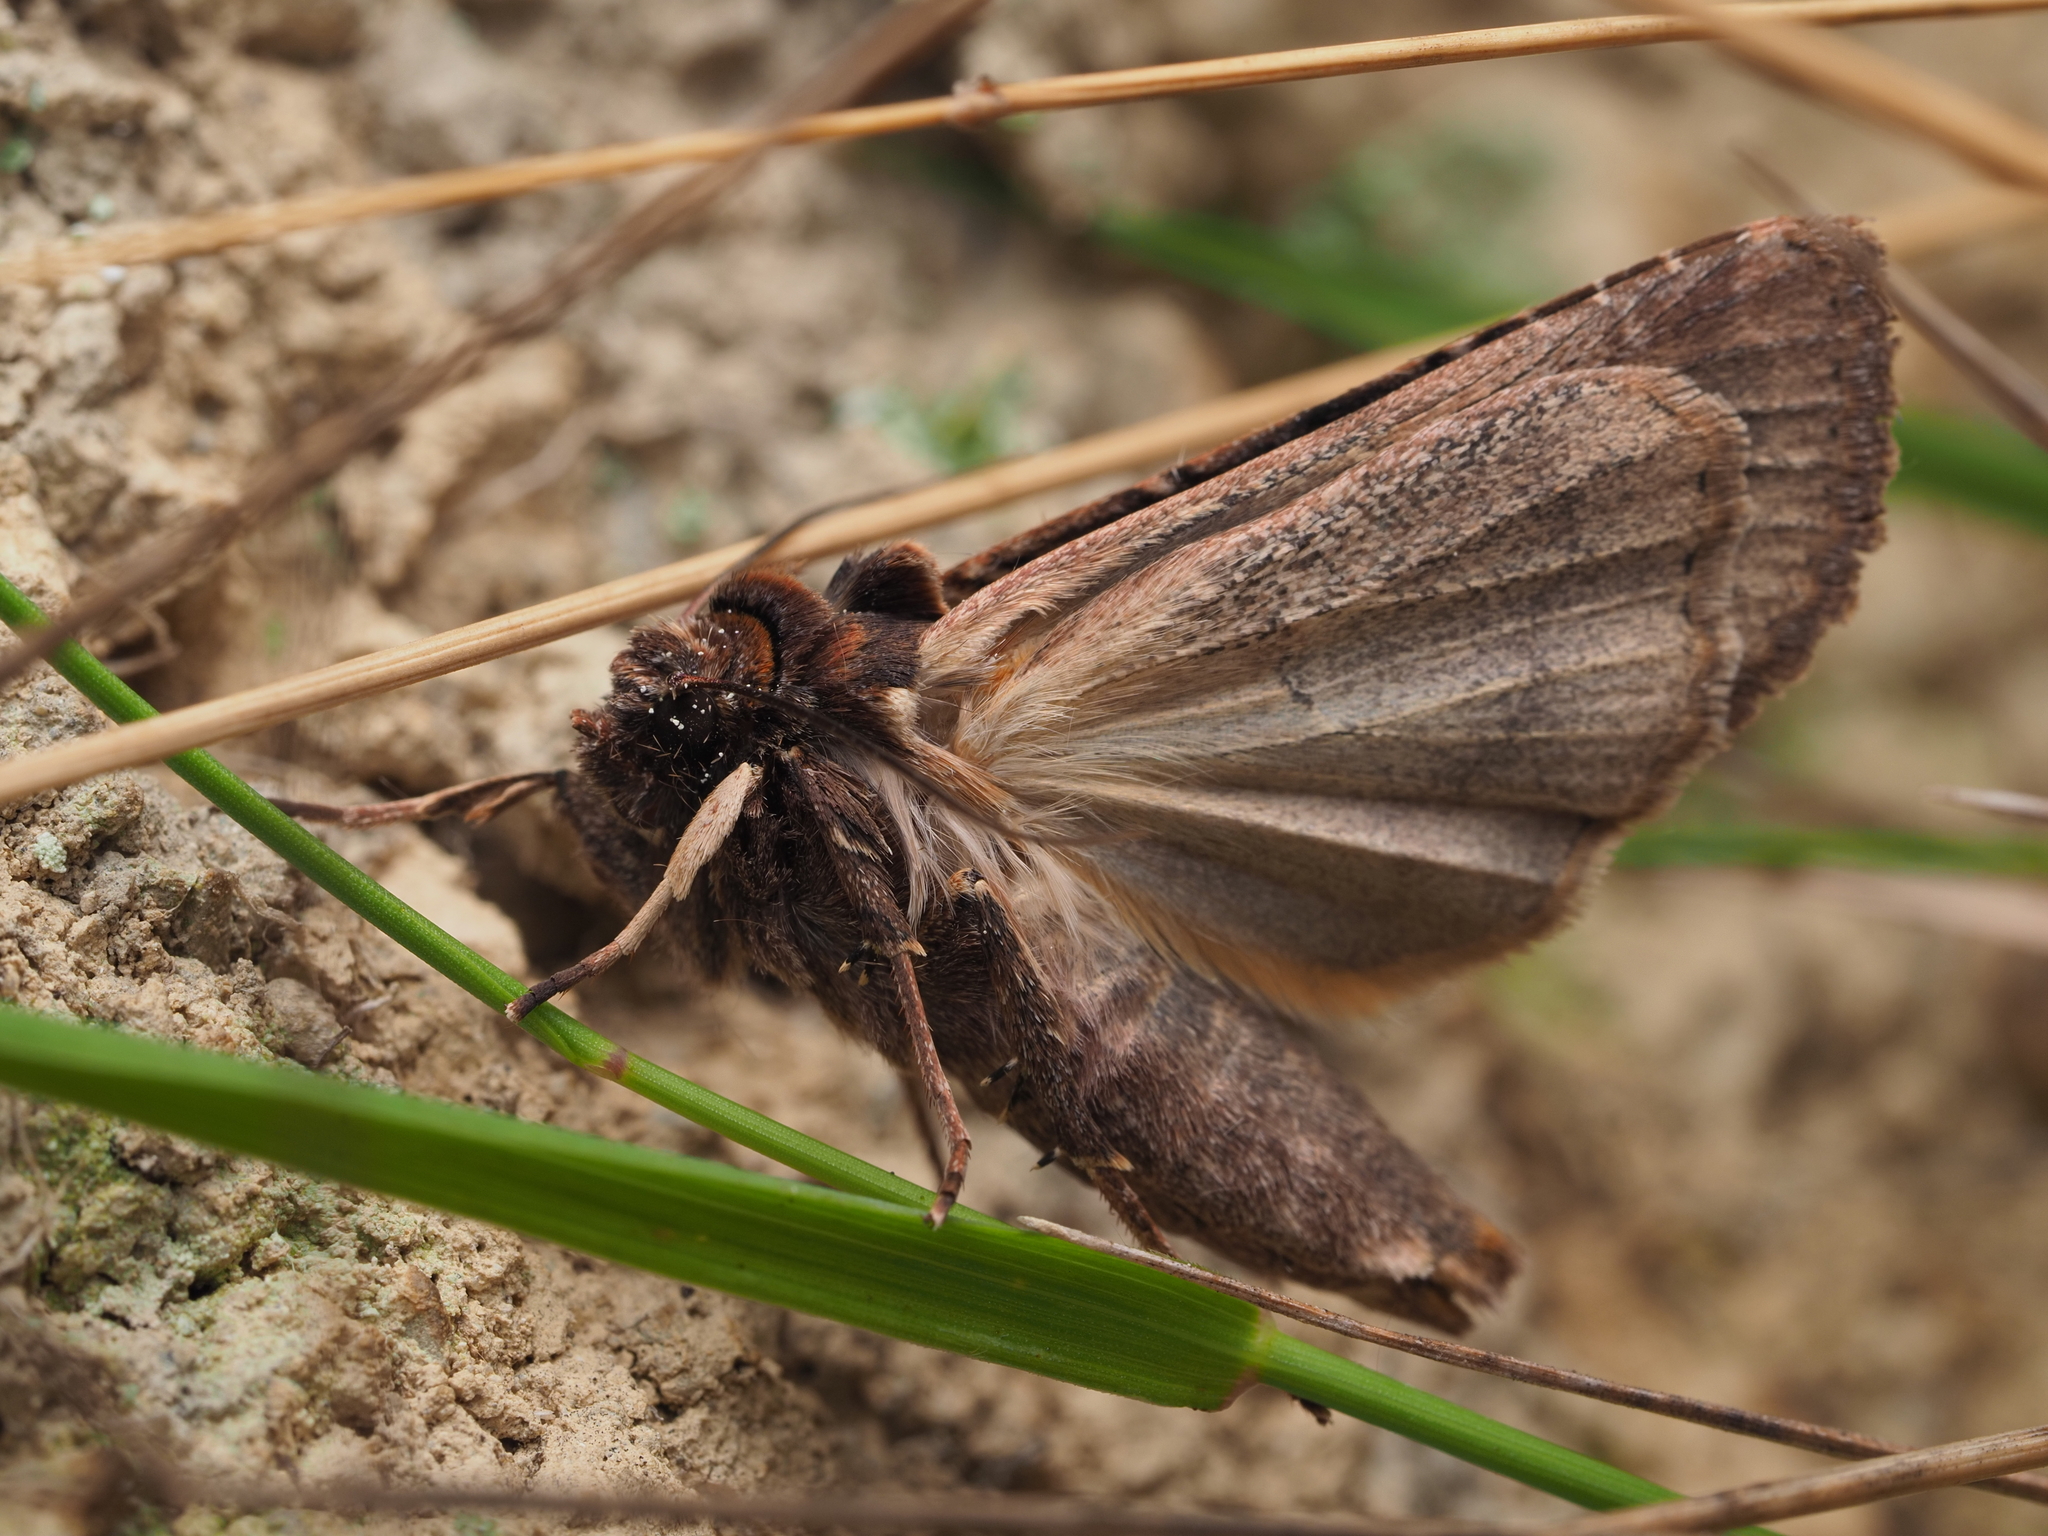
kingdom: Animalia
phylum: Arthropoda
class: Insecta
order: Lepidoptera
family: Noctuidae
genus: Ichneutica
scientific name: Ichneutica omoplaca
